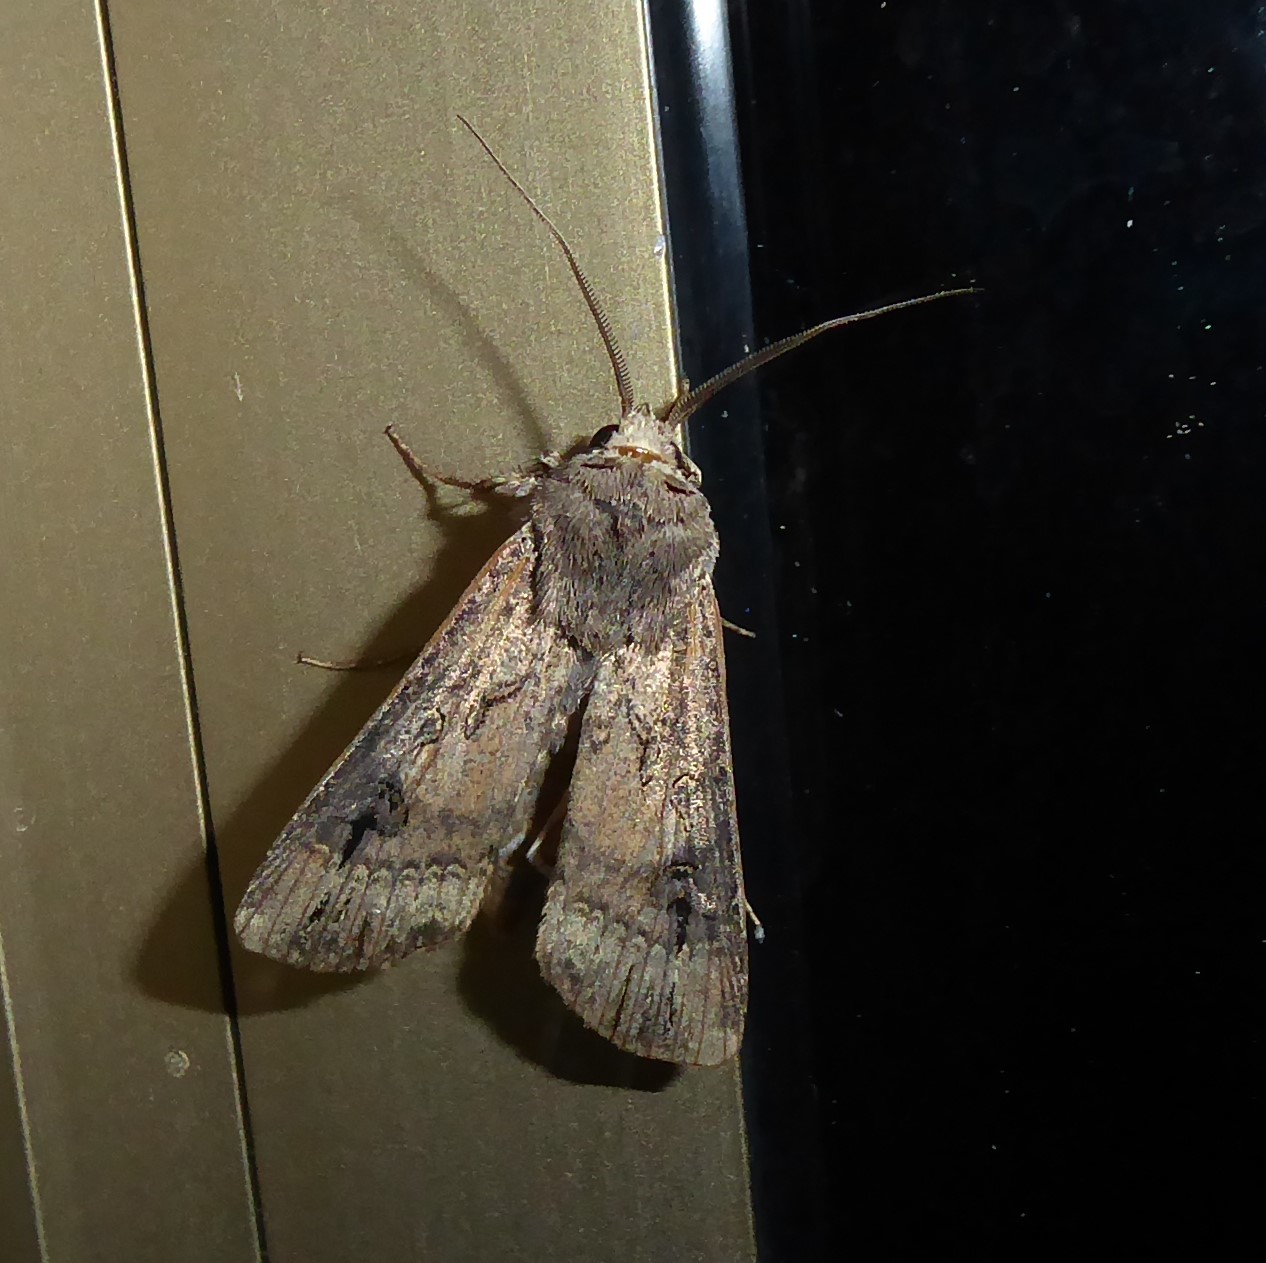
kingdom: Animalia
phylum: Arthropoda
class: Insecta
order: Lepidoptera
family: Noctuidae
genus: Agrotis
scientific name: Agrotis ipsilon
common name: Dark sword-grass
